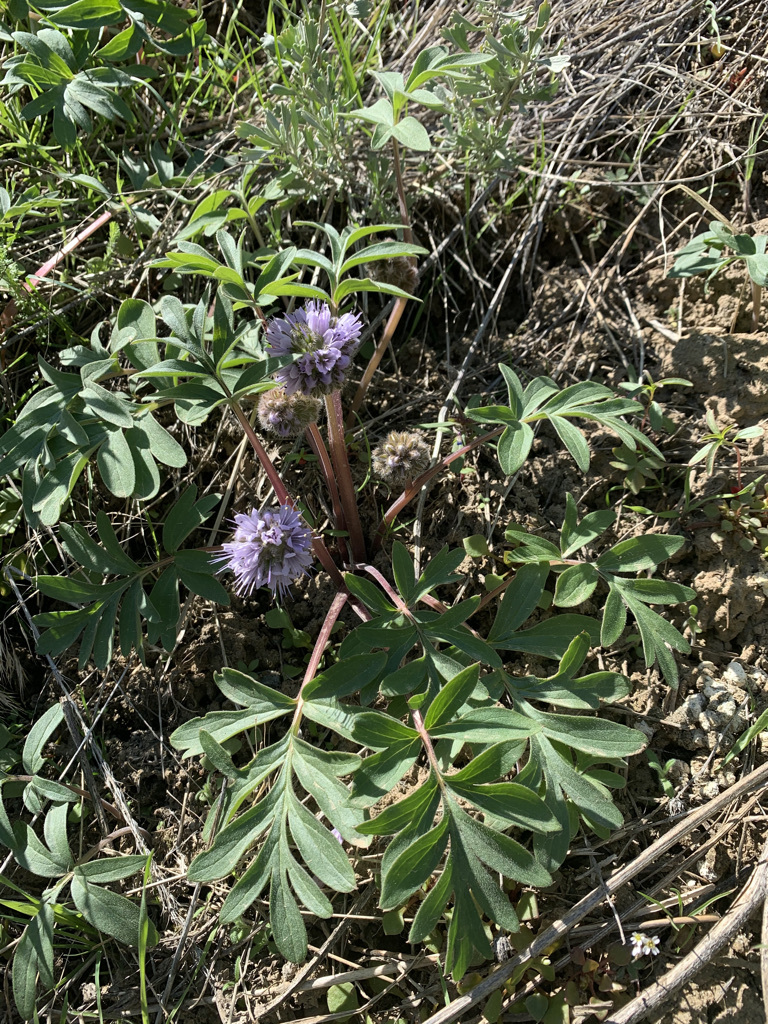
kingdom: Plantae
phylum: Tracheophyta
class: Magnoliopsida
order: Boraginales
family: Hydrophyllaceae
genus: Hydrophyllum
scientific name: Hydrophyllum capitatum
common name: Woollen-breeches
